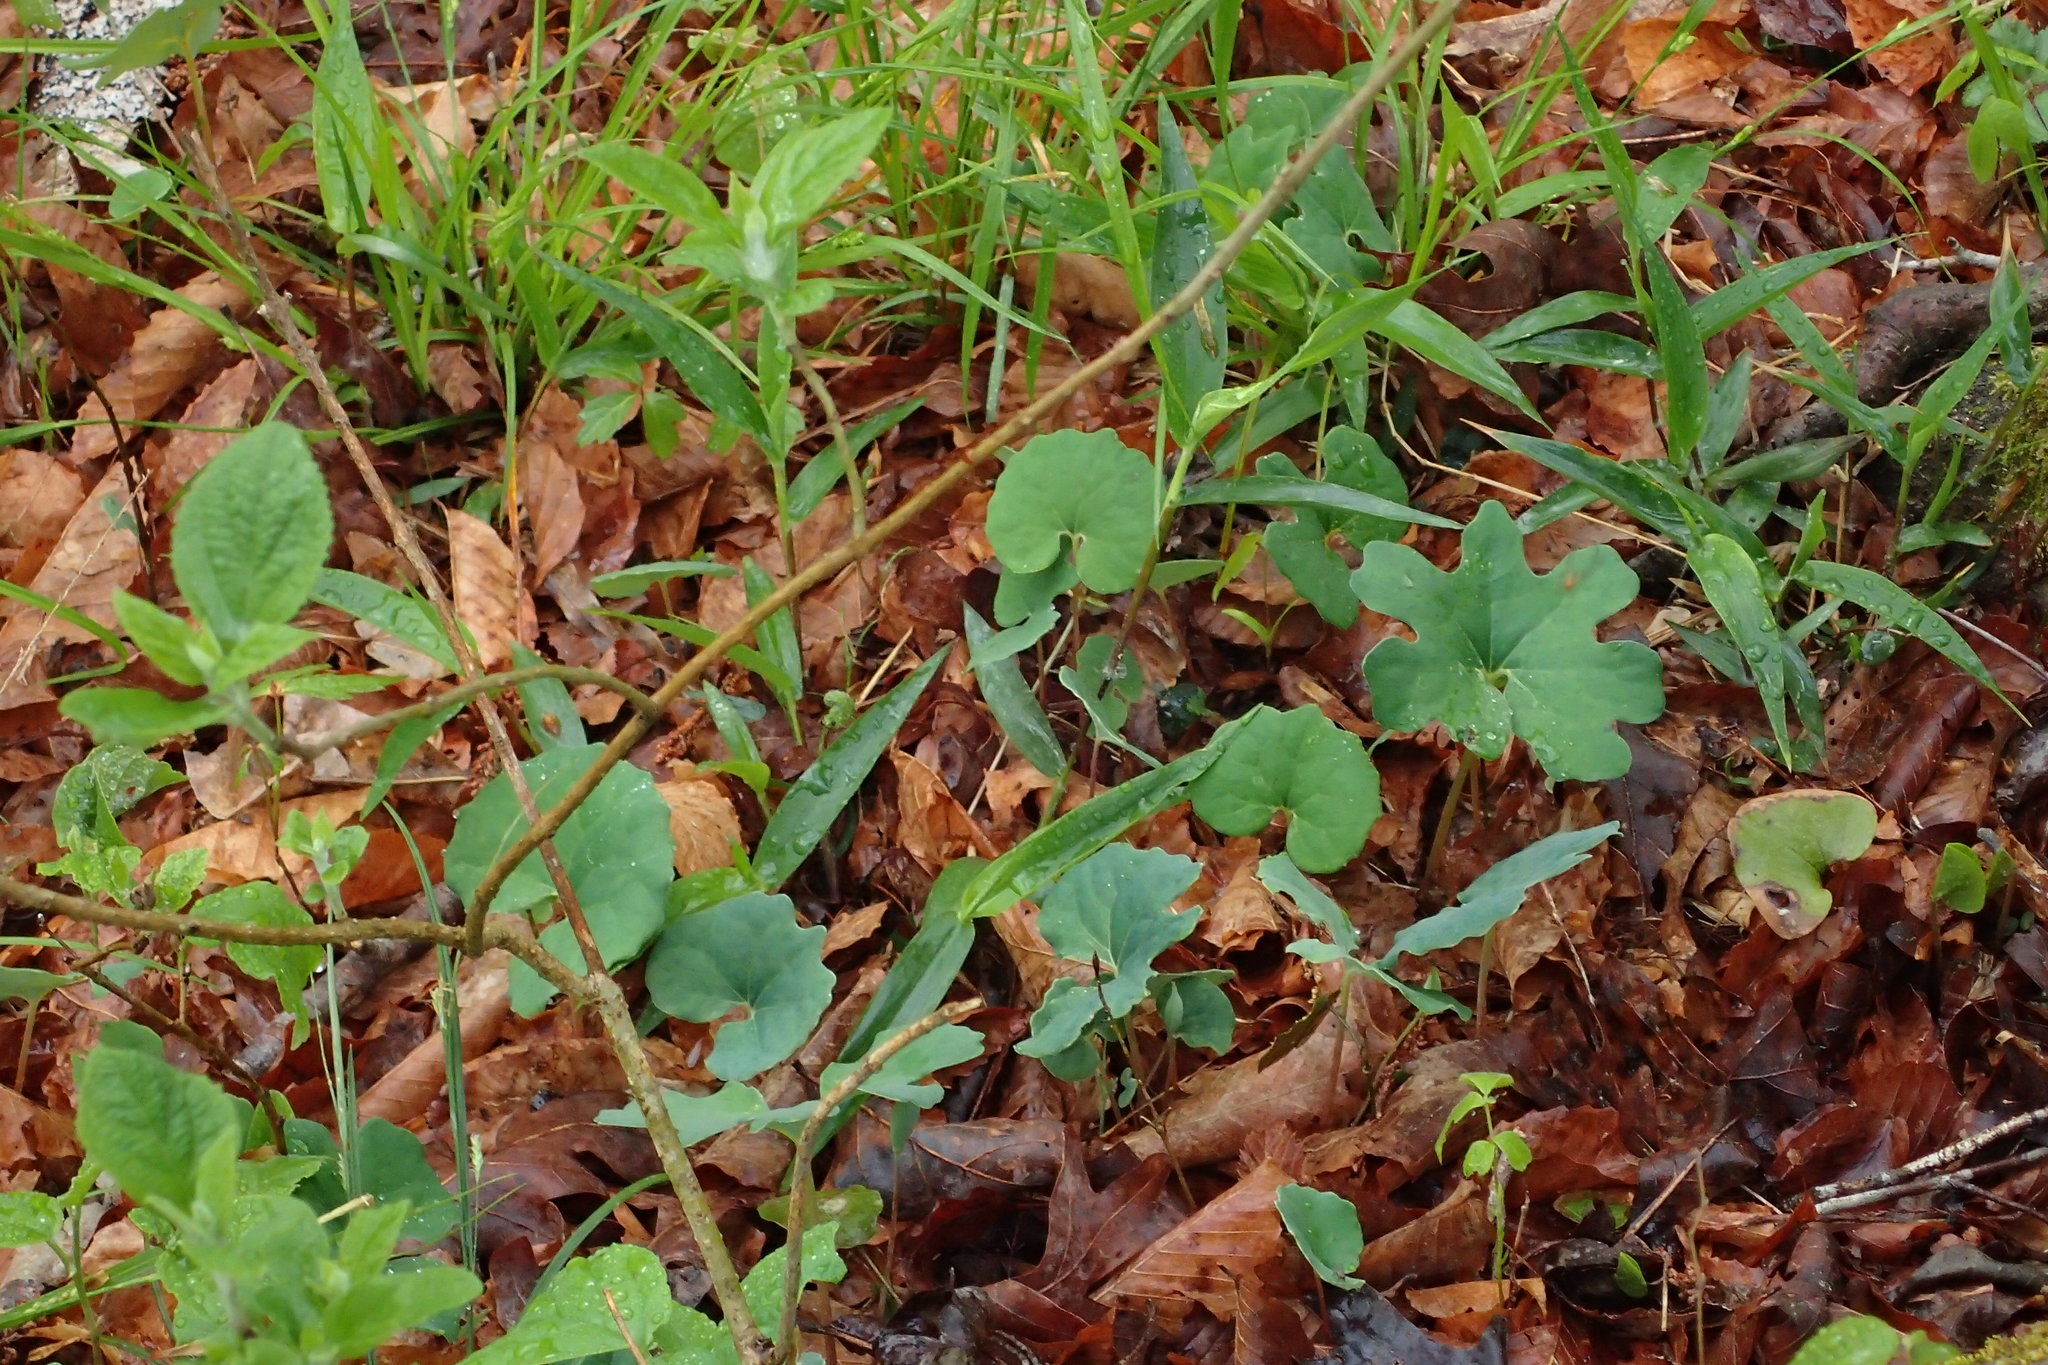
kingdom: Plantae
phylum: Tracheophyta
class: Magnoliopsida
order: Ranunculales
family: Papaveraceae
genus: Sanguinaria
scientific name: Sanguinaria canadensis
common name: Bloodroot
